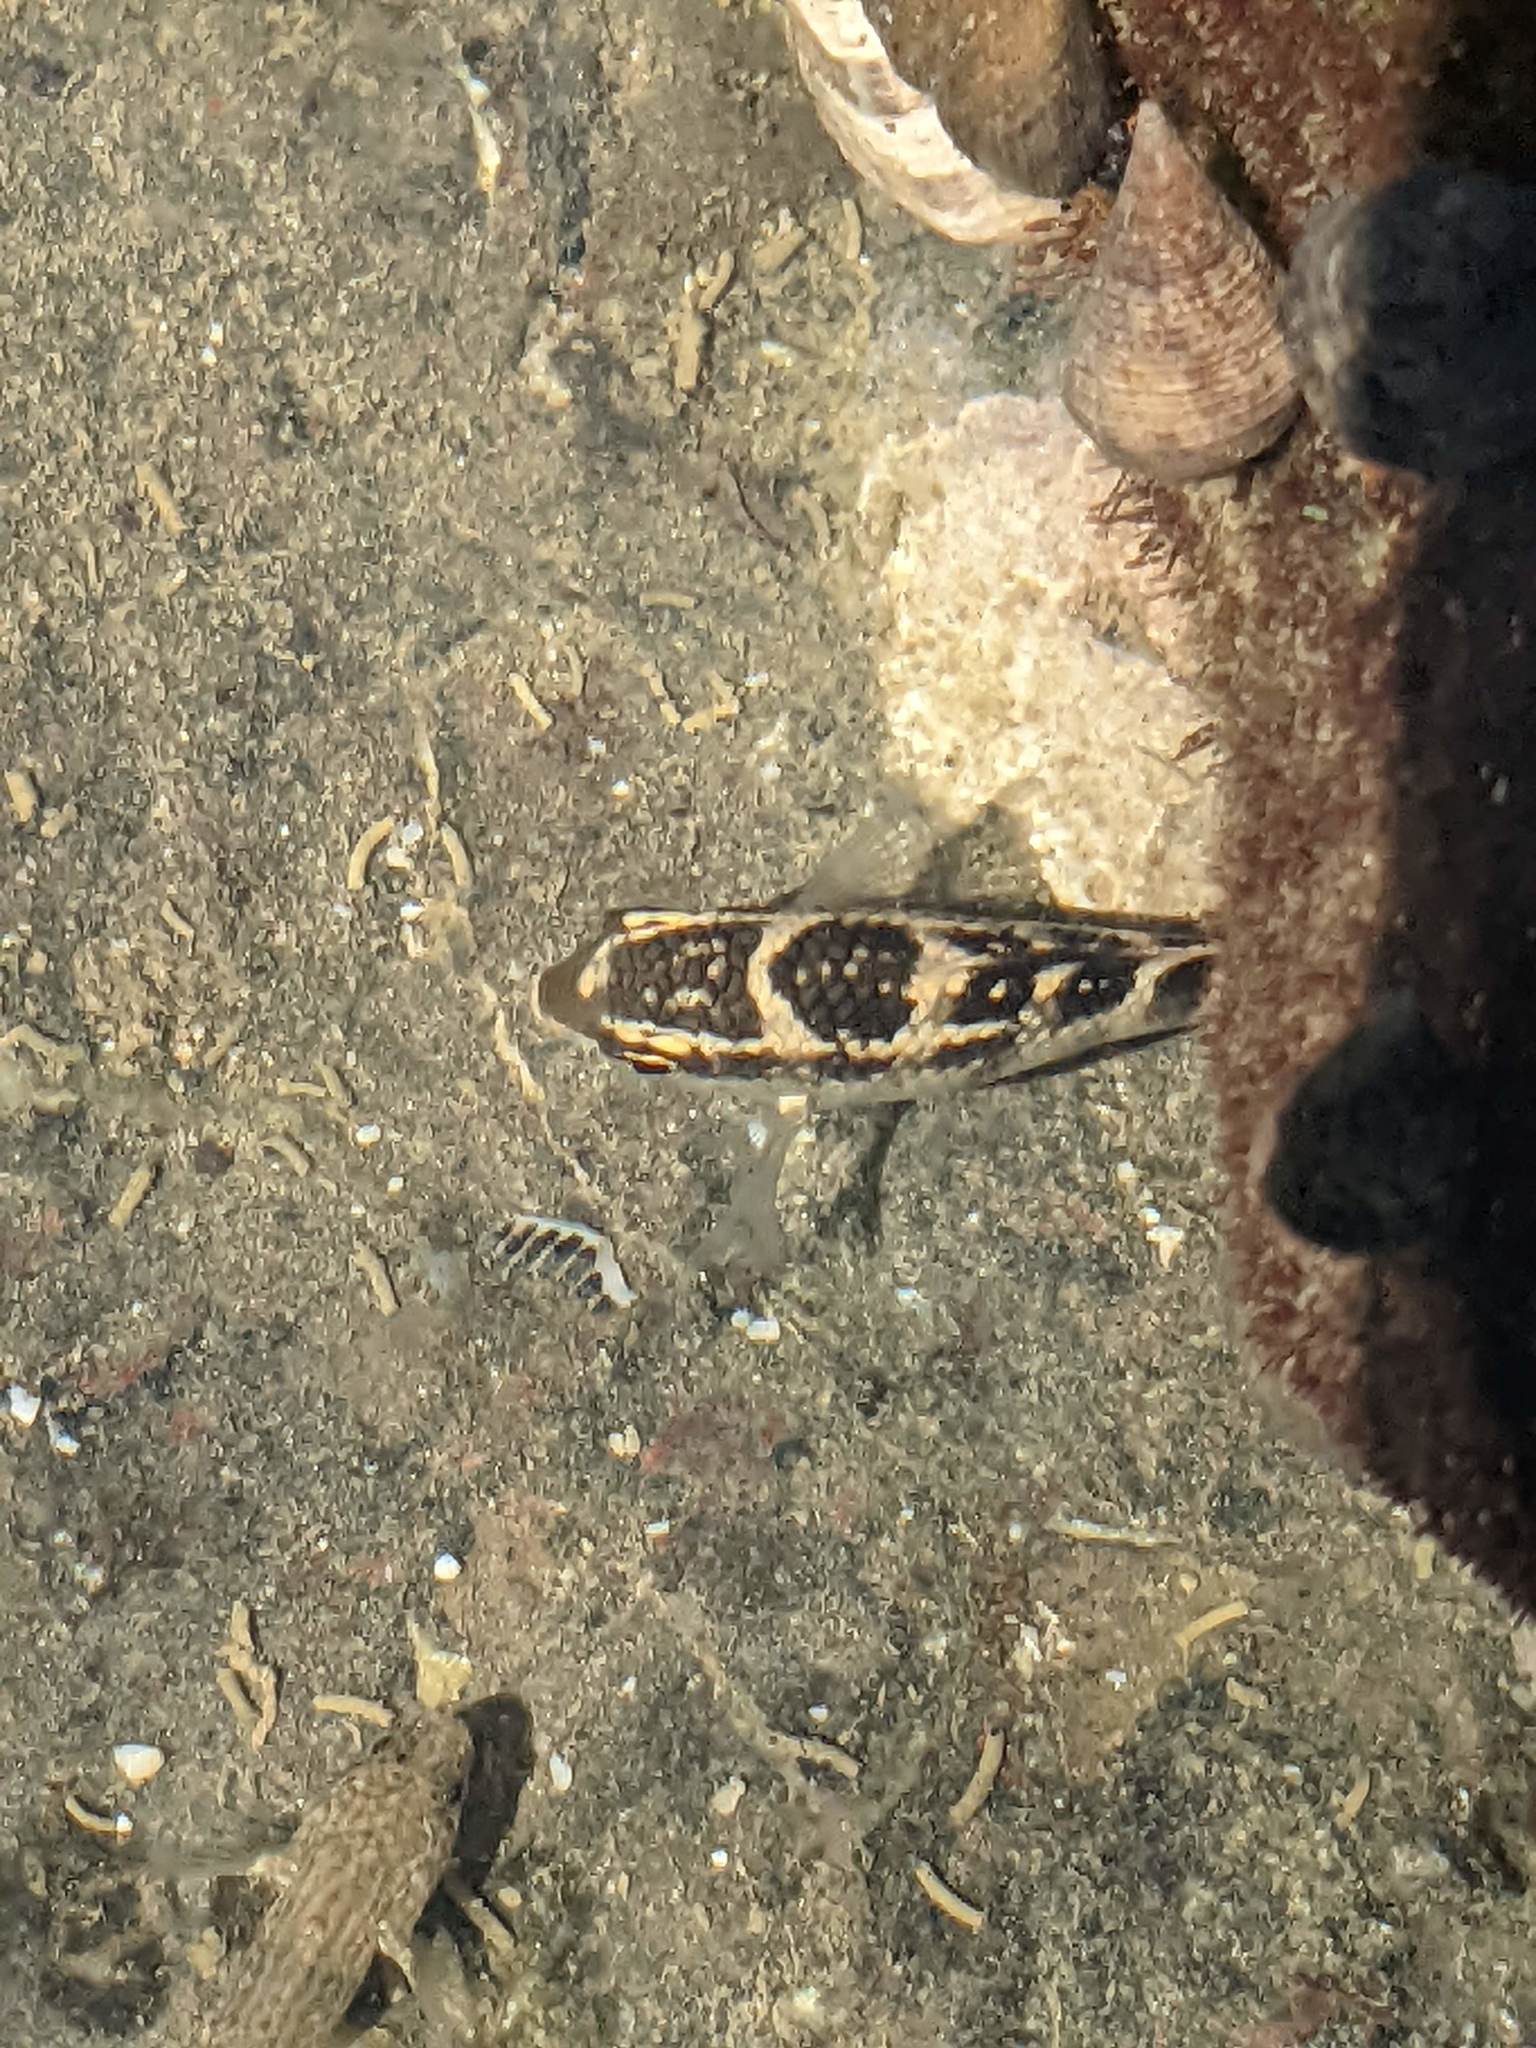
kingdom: Animalia
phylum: Chordata
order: Perciformes
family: Pomacentridae
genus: Abudefduf
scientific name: Abudefduf concolor
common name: Dusky seargent
